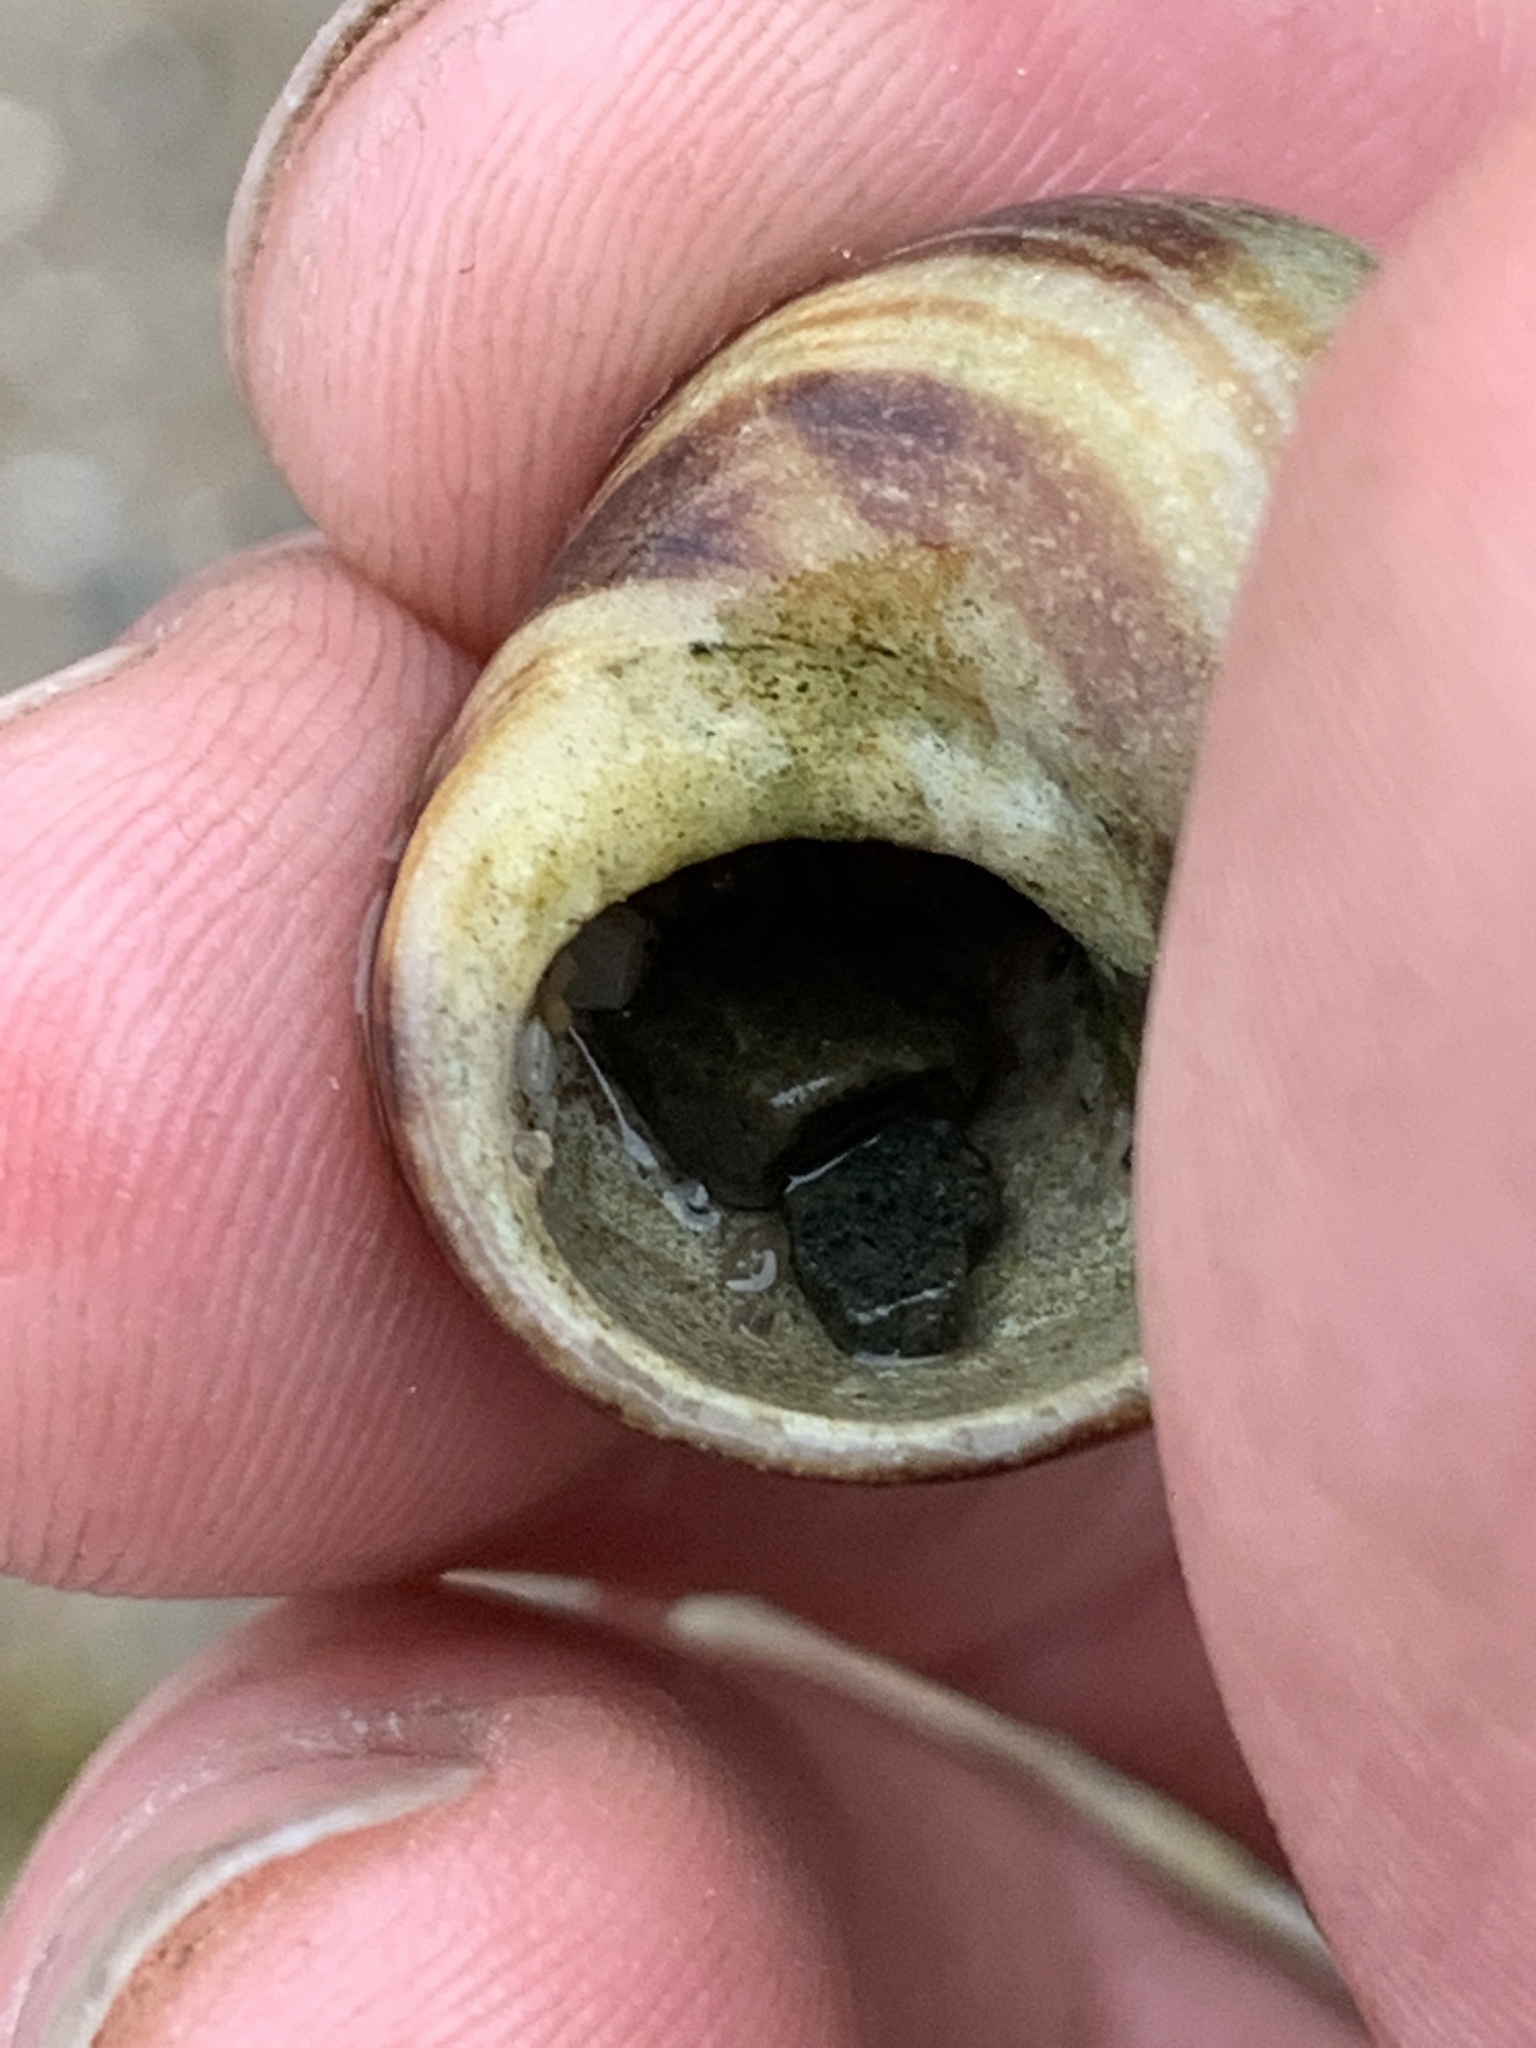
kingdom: Animalia
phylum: Mollusca
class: Gastropoda
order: Littorinimorpha
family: Littorinidae
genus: Littorina
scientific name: Littorina littorea
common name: Common periwinkle
